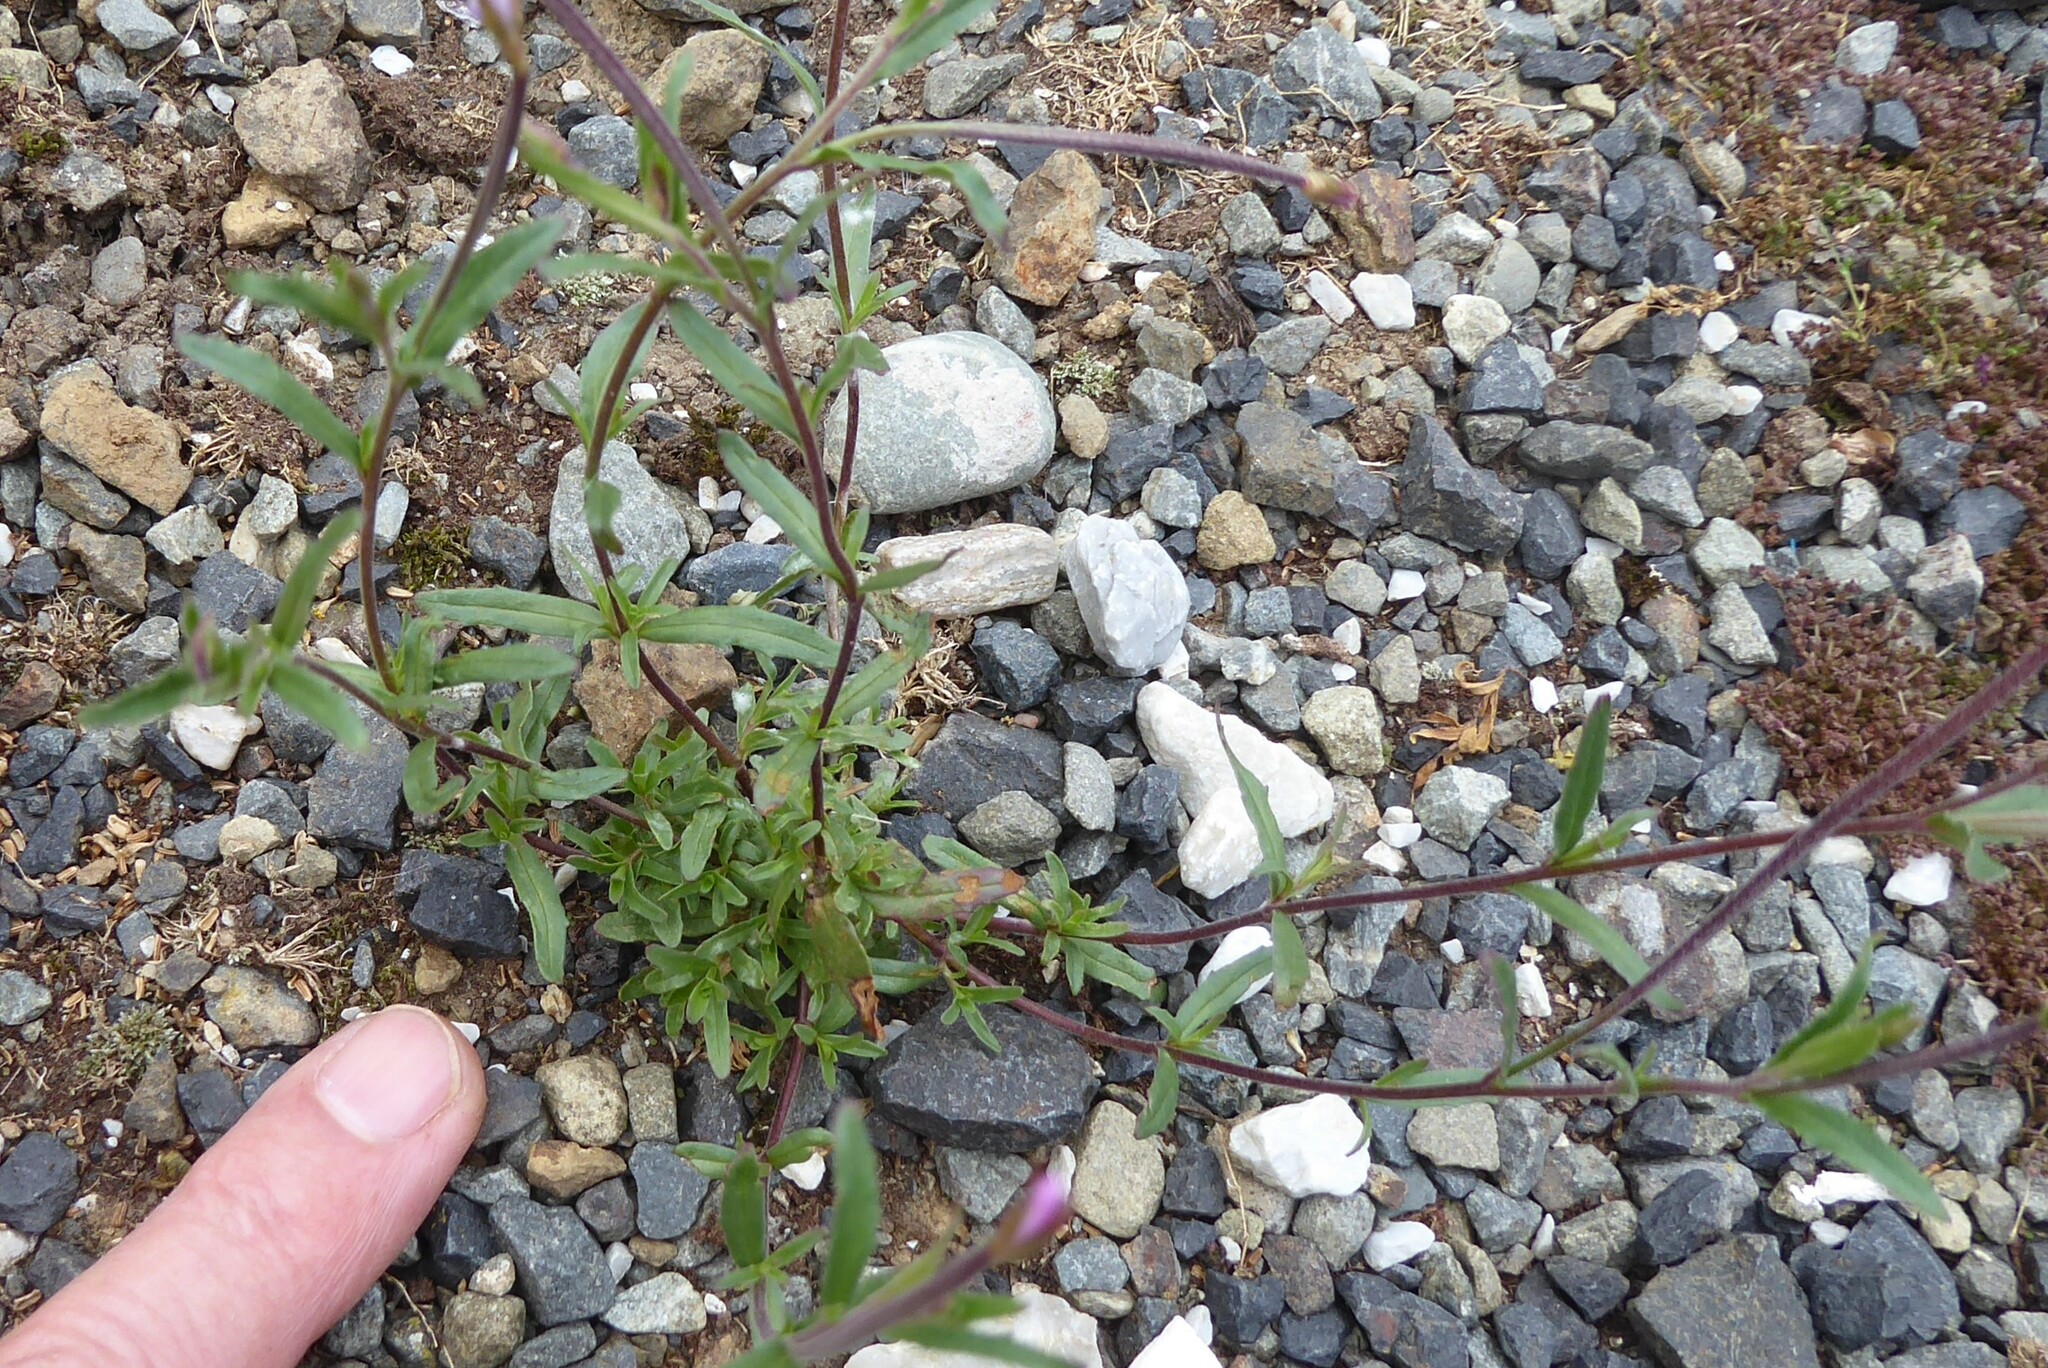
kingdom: Plantae
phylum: Tracheophyta
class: Magnoliopsida
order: Myrtales
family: Onagraceae
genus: Epilobium
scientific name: Epilobium billardierianum
